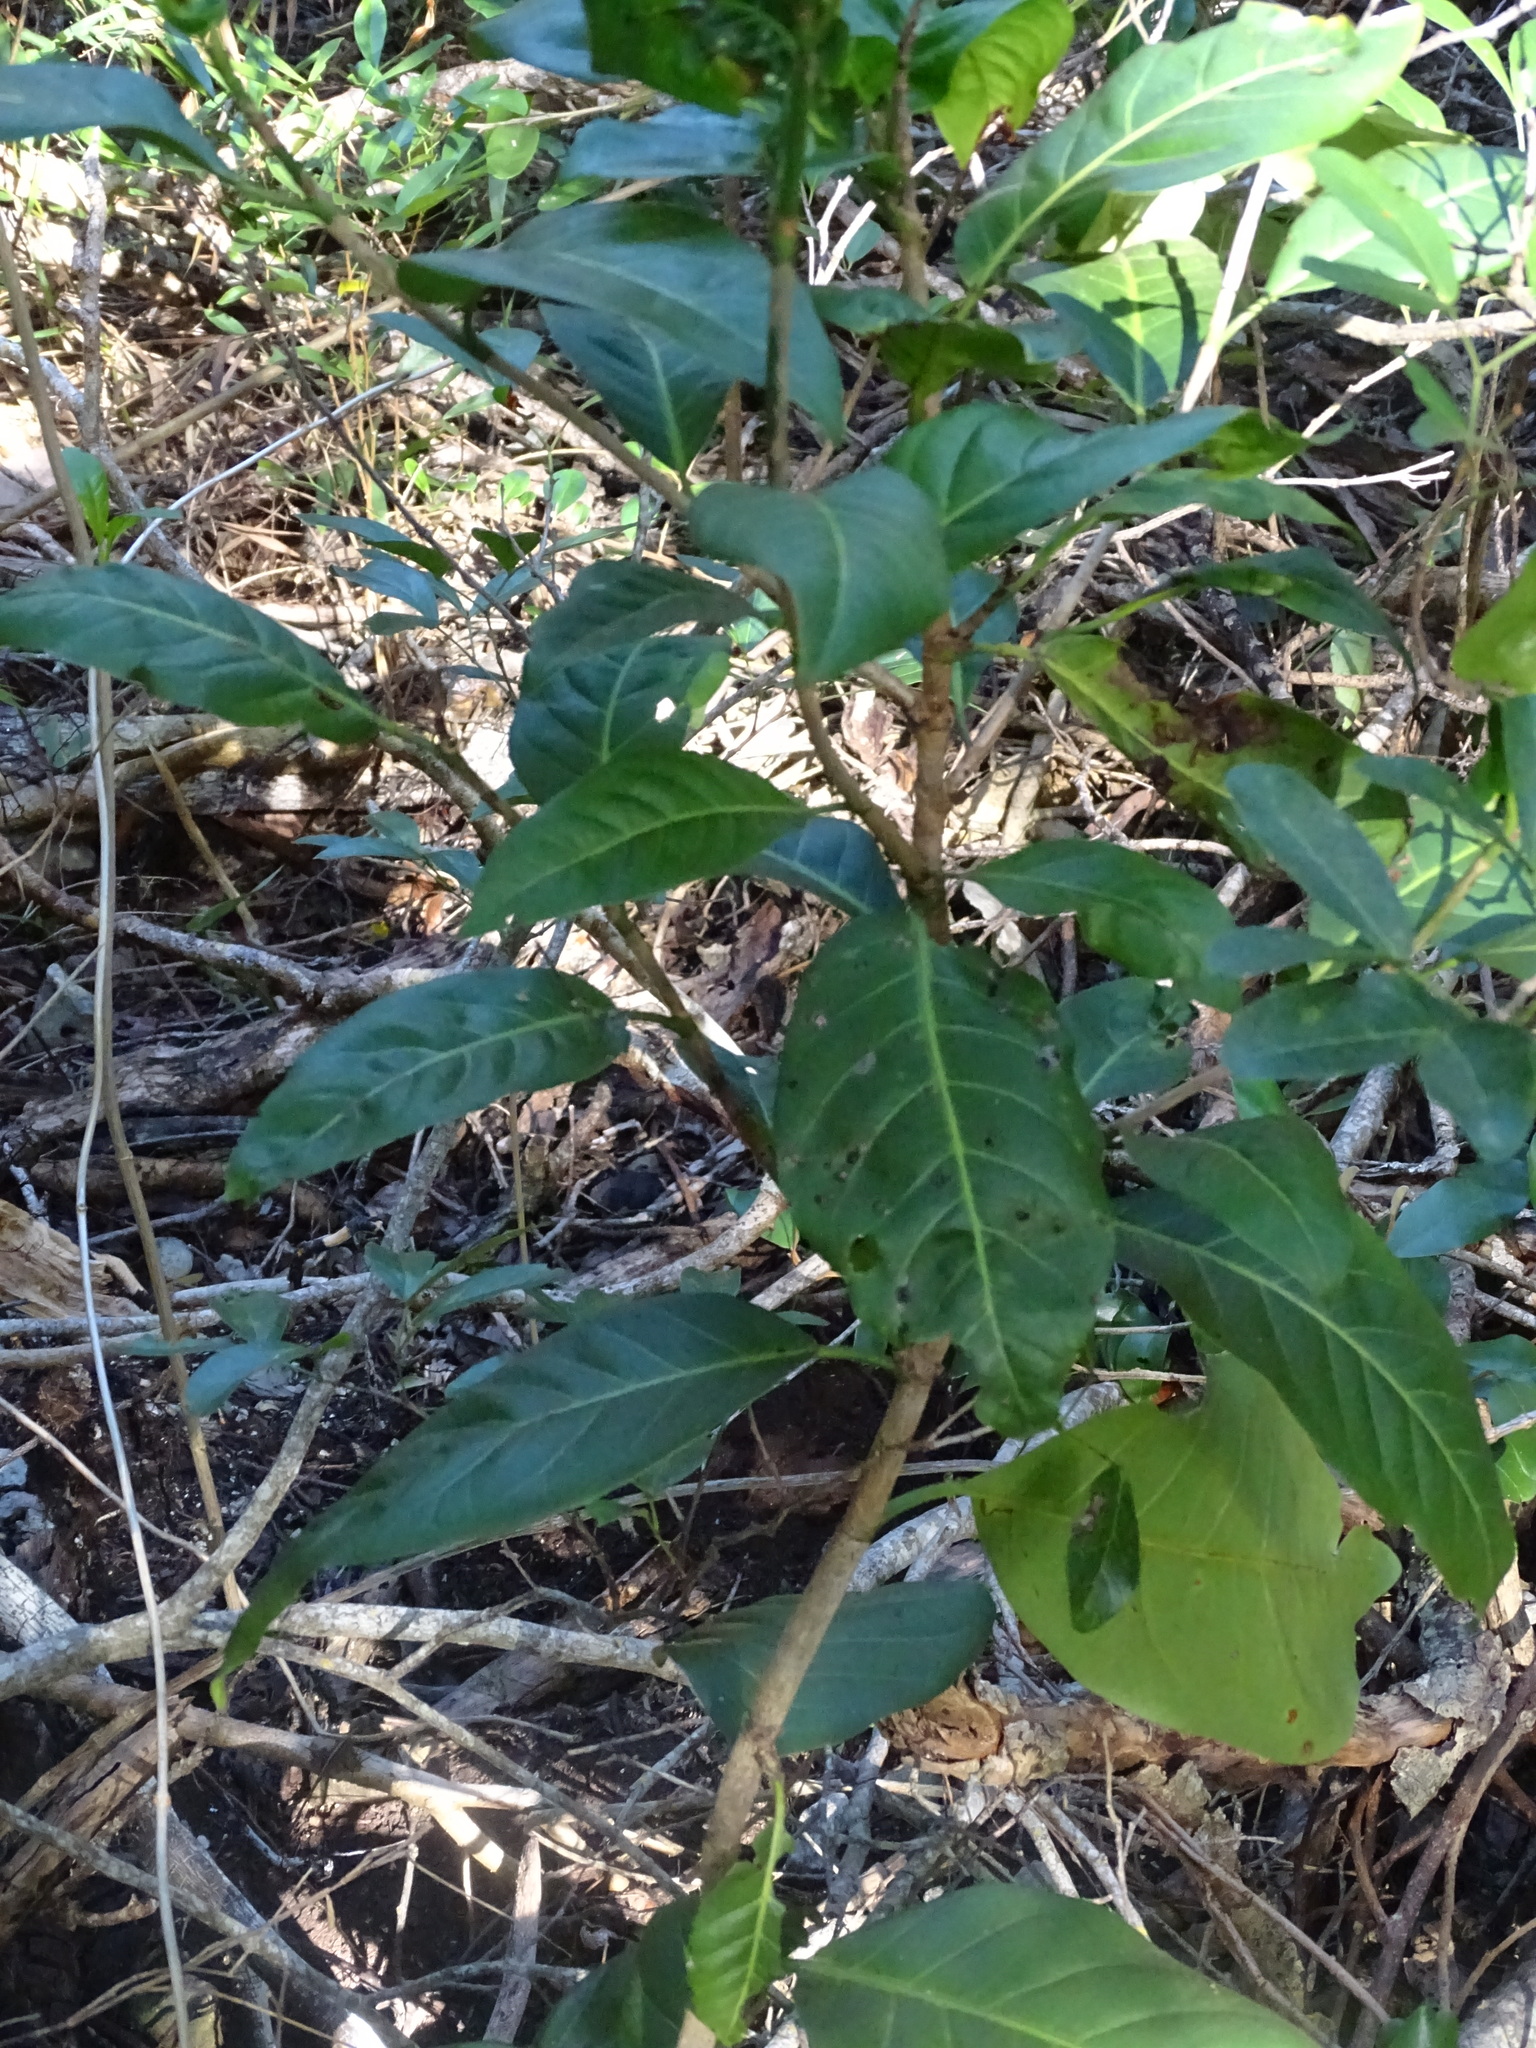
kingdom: Plantae
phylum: Tracheophyta
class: Magnoliopsida
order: Caryophyllales
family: Polygonaceae
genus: Coccoloba
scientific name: Coccoloba diversifolia
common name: Pigeon-plum
